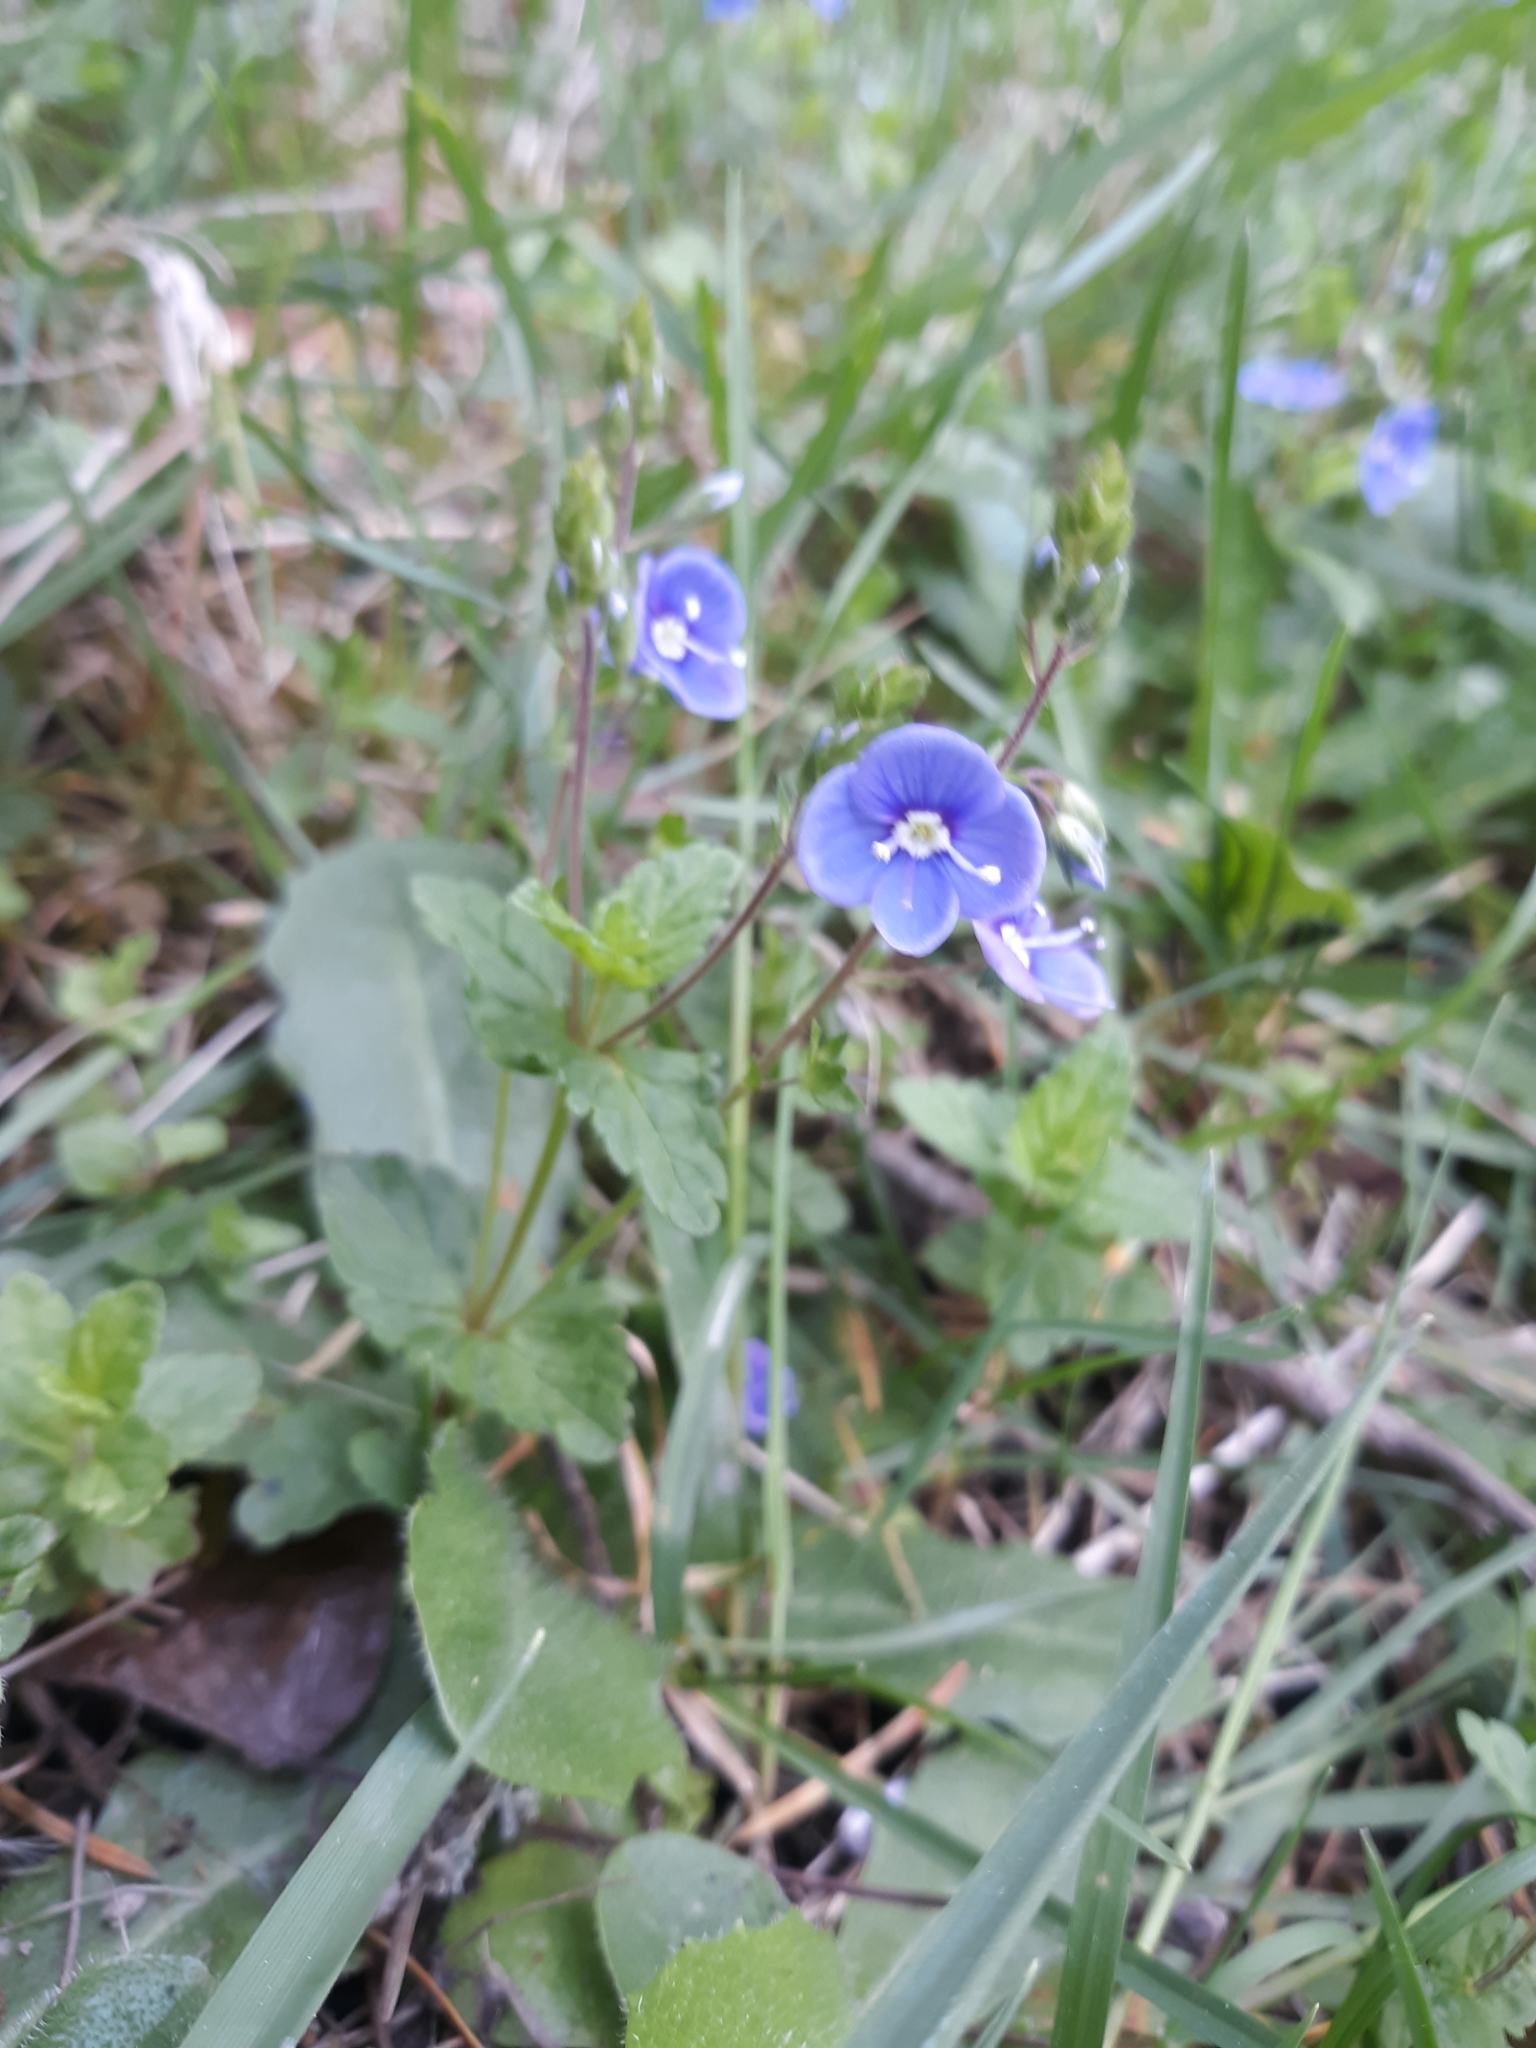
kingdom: Plantae
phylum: Tracheophyta
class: Magnoliopsida
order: Lamiales
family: Plantaginaceae
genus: Veronica
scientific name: Veronica chamaedrys
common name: Germander speedwell
